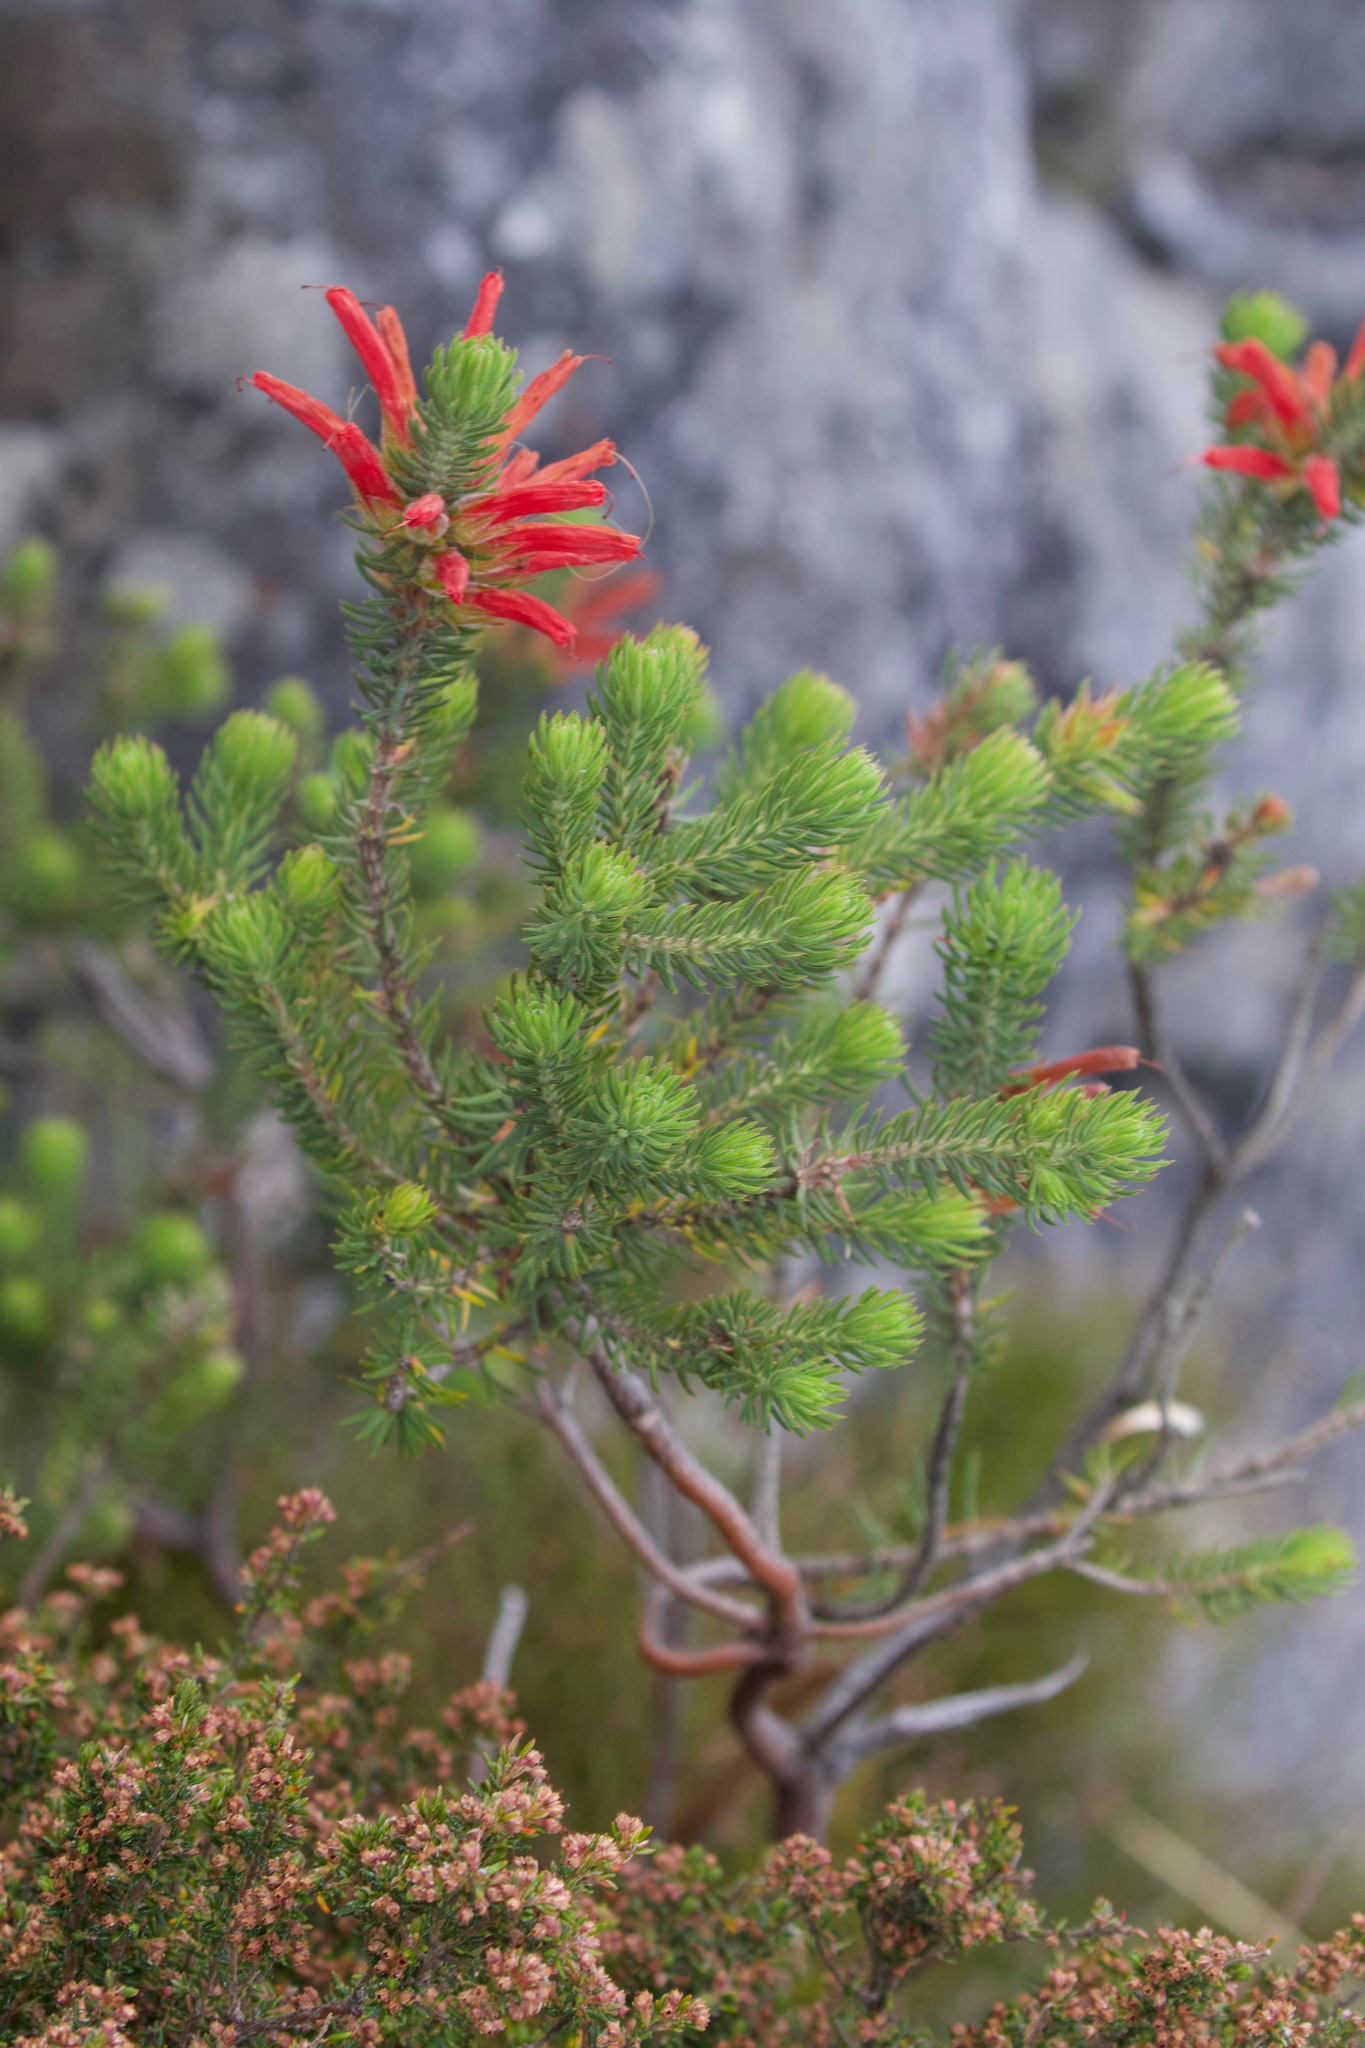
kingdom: Plantae
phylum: Tracheophyta
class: Magnoliopsida
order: Ericales
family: Ericaceae
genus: Erica
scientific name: Erica abietina
